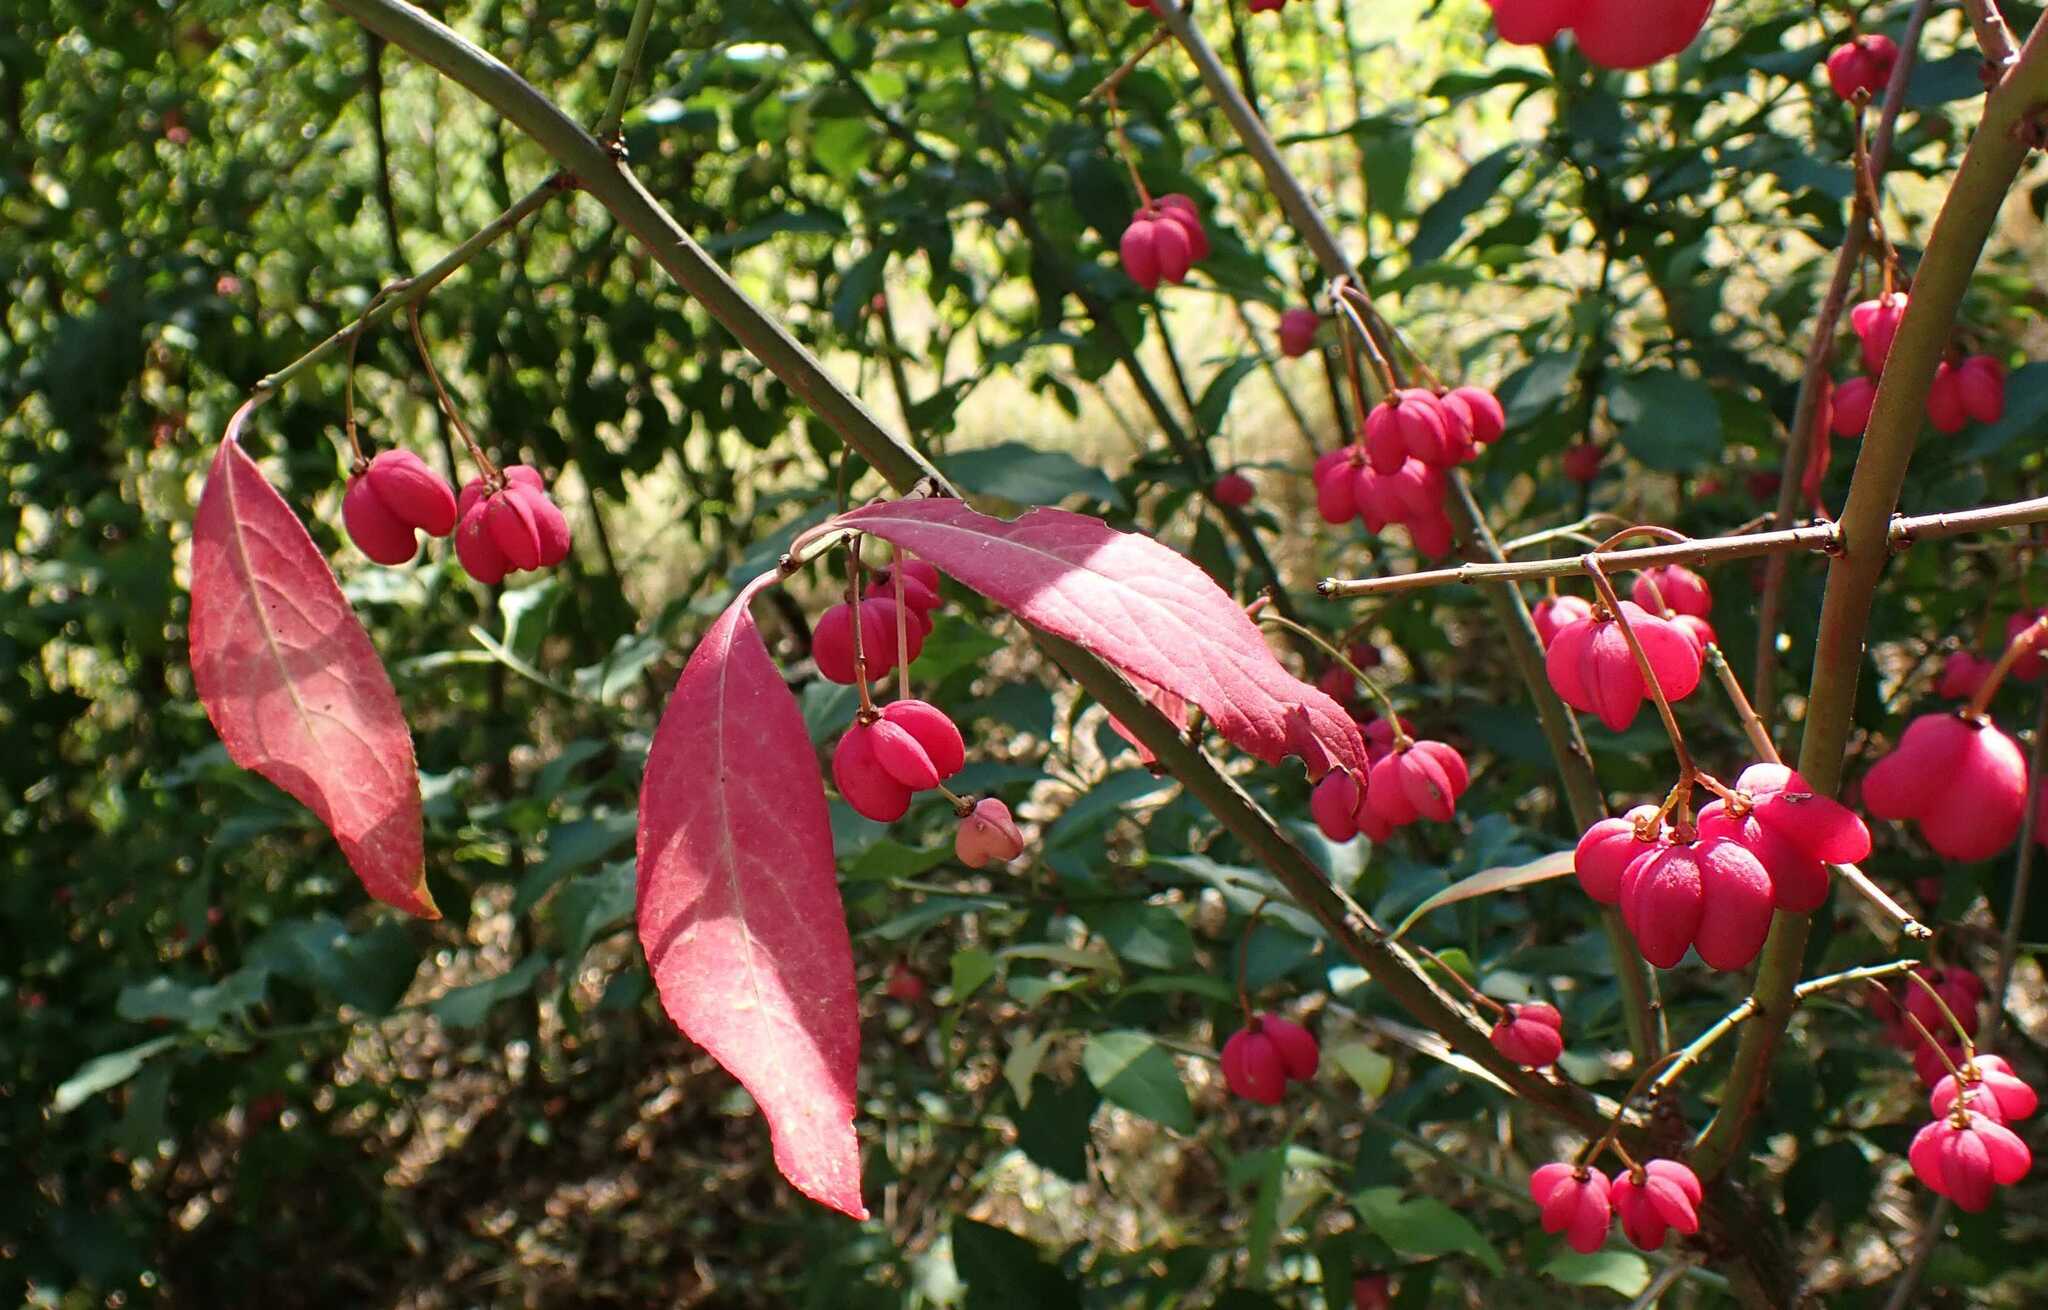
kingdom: Plantae
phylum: Tracheophyta
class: Magnoliopsida
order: Celastrales
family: Celastraceae
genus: Euonymus
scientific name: Euonymus europaeus
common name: Spindle
